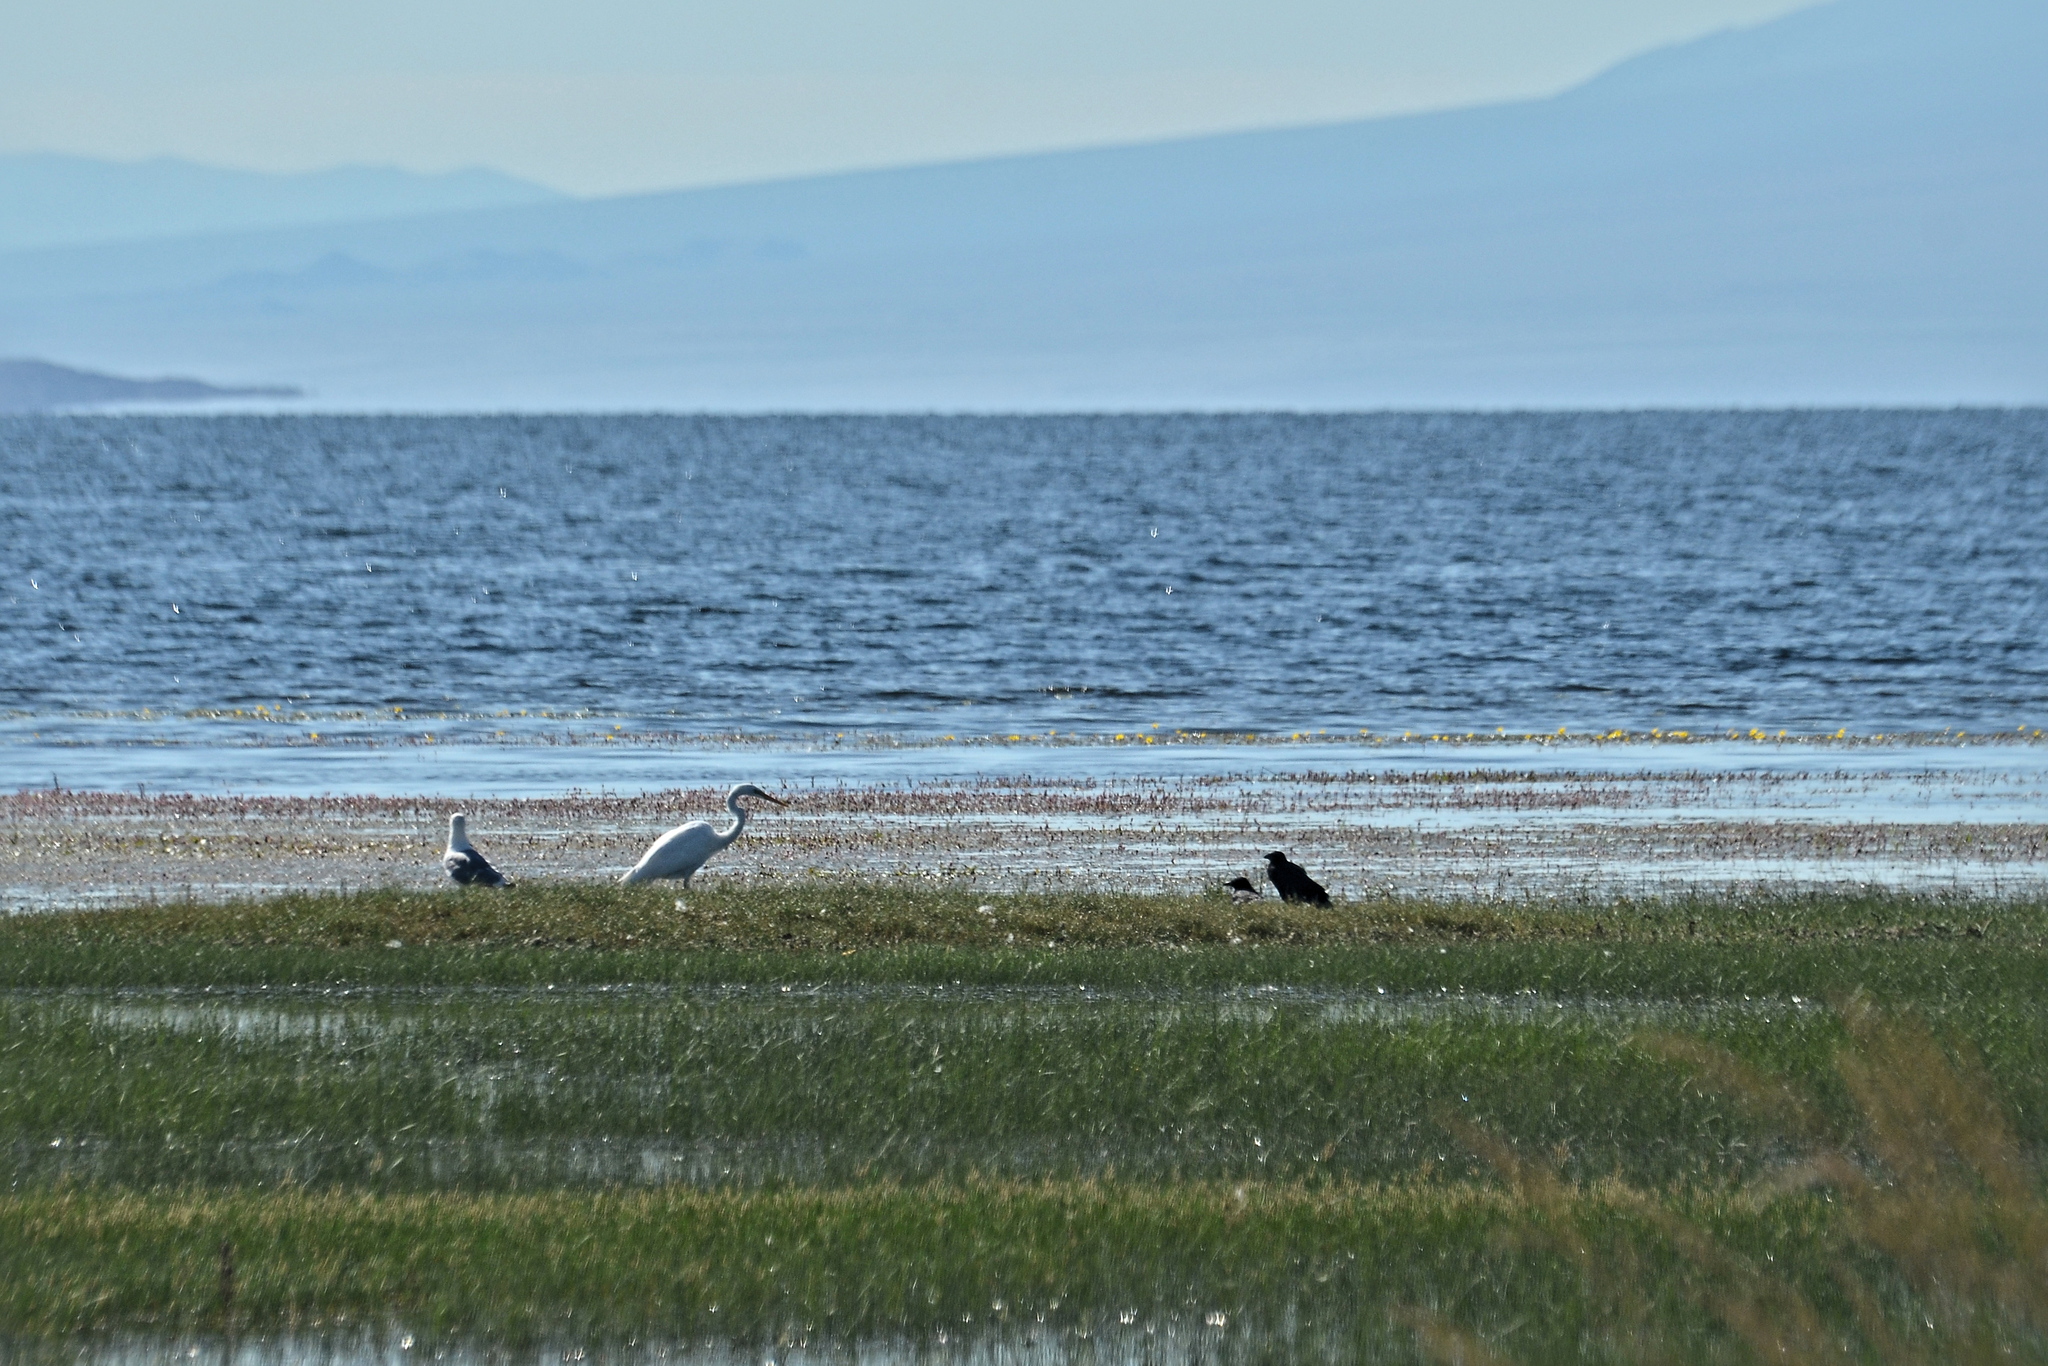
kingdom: Animalia
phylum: Chordata
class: Aves
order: Pelecaniformes
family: Ardeidae
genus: Ardea
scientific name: Ardea alba
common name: Great egret
